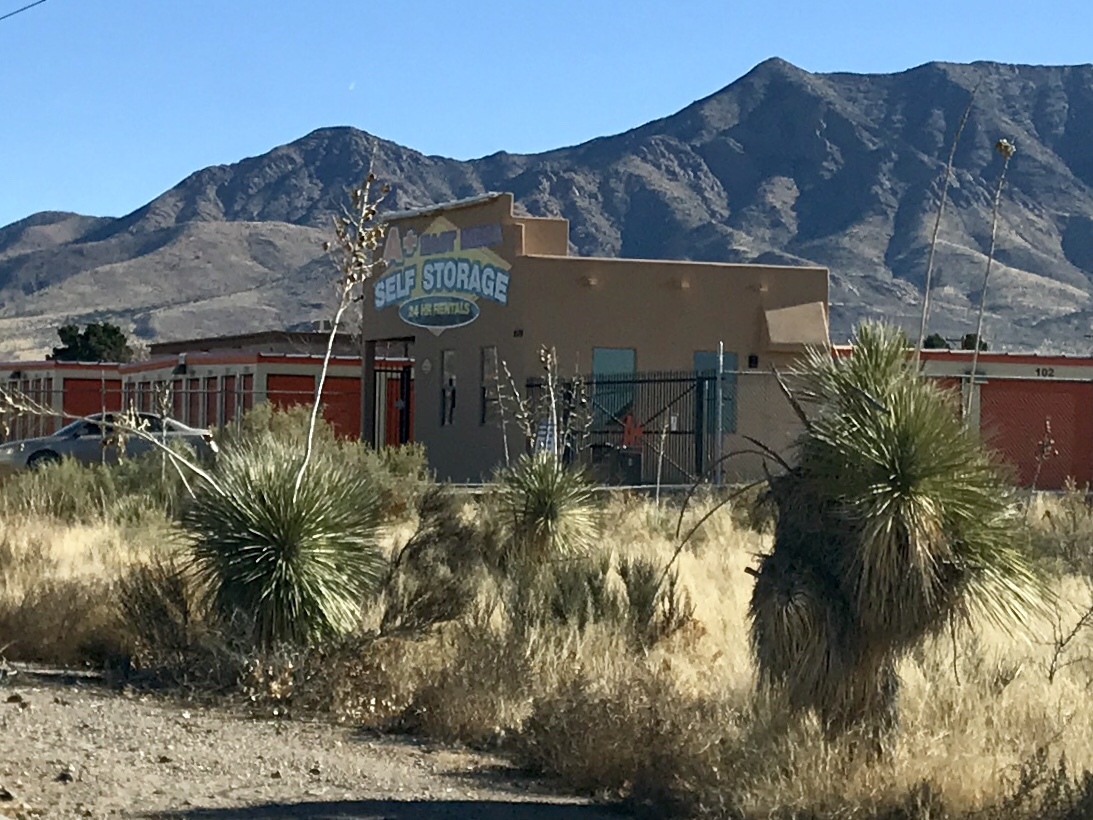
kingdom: Plantae
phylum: Tracheophyta
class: Liliopsida
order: Asparagales
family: Asparagaceae
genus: Yucca
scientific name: Yucca elata
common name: Palmella
